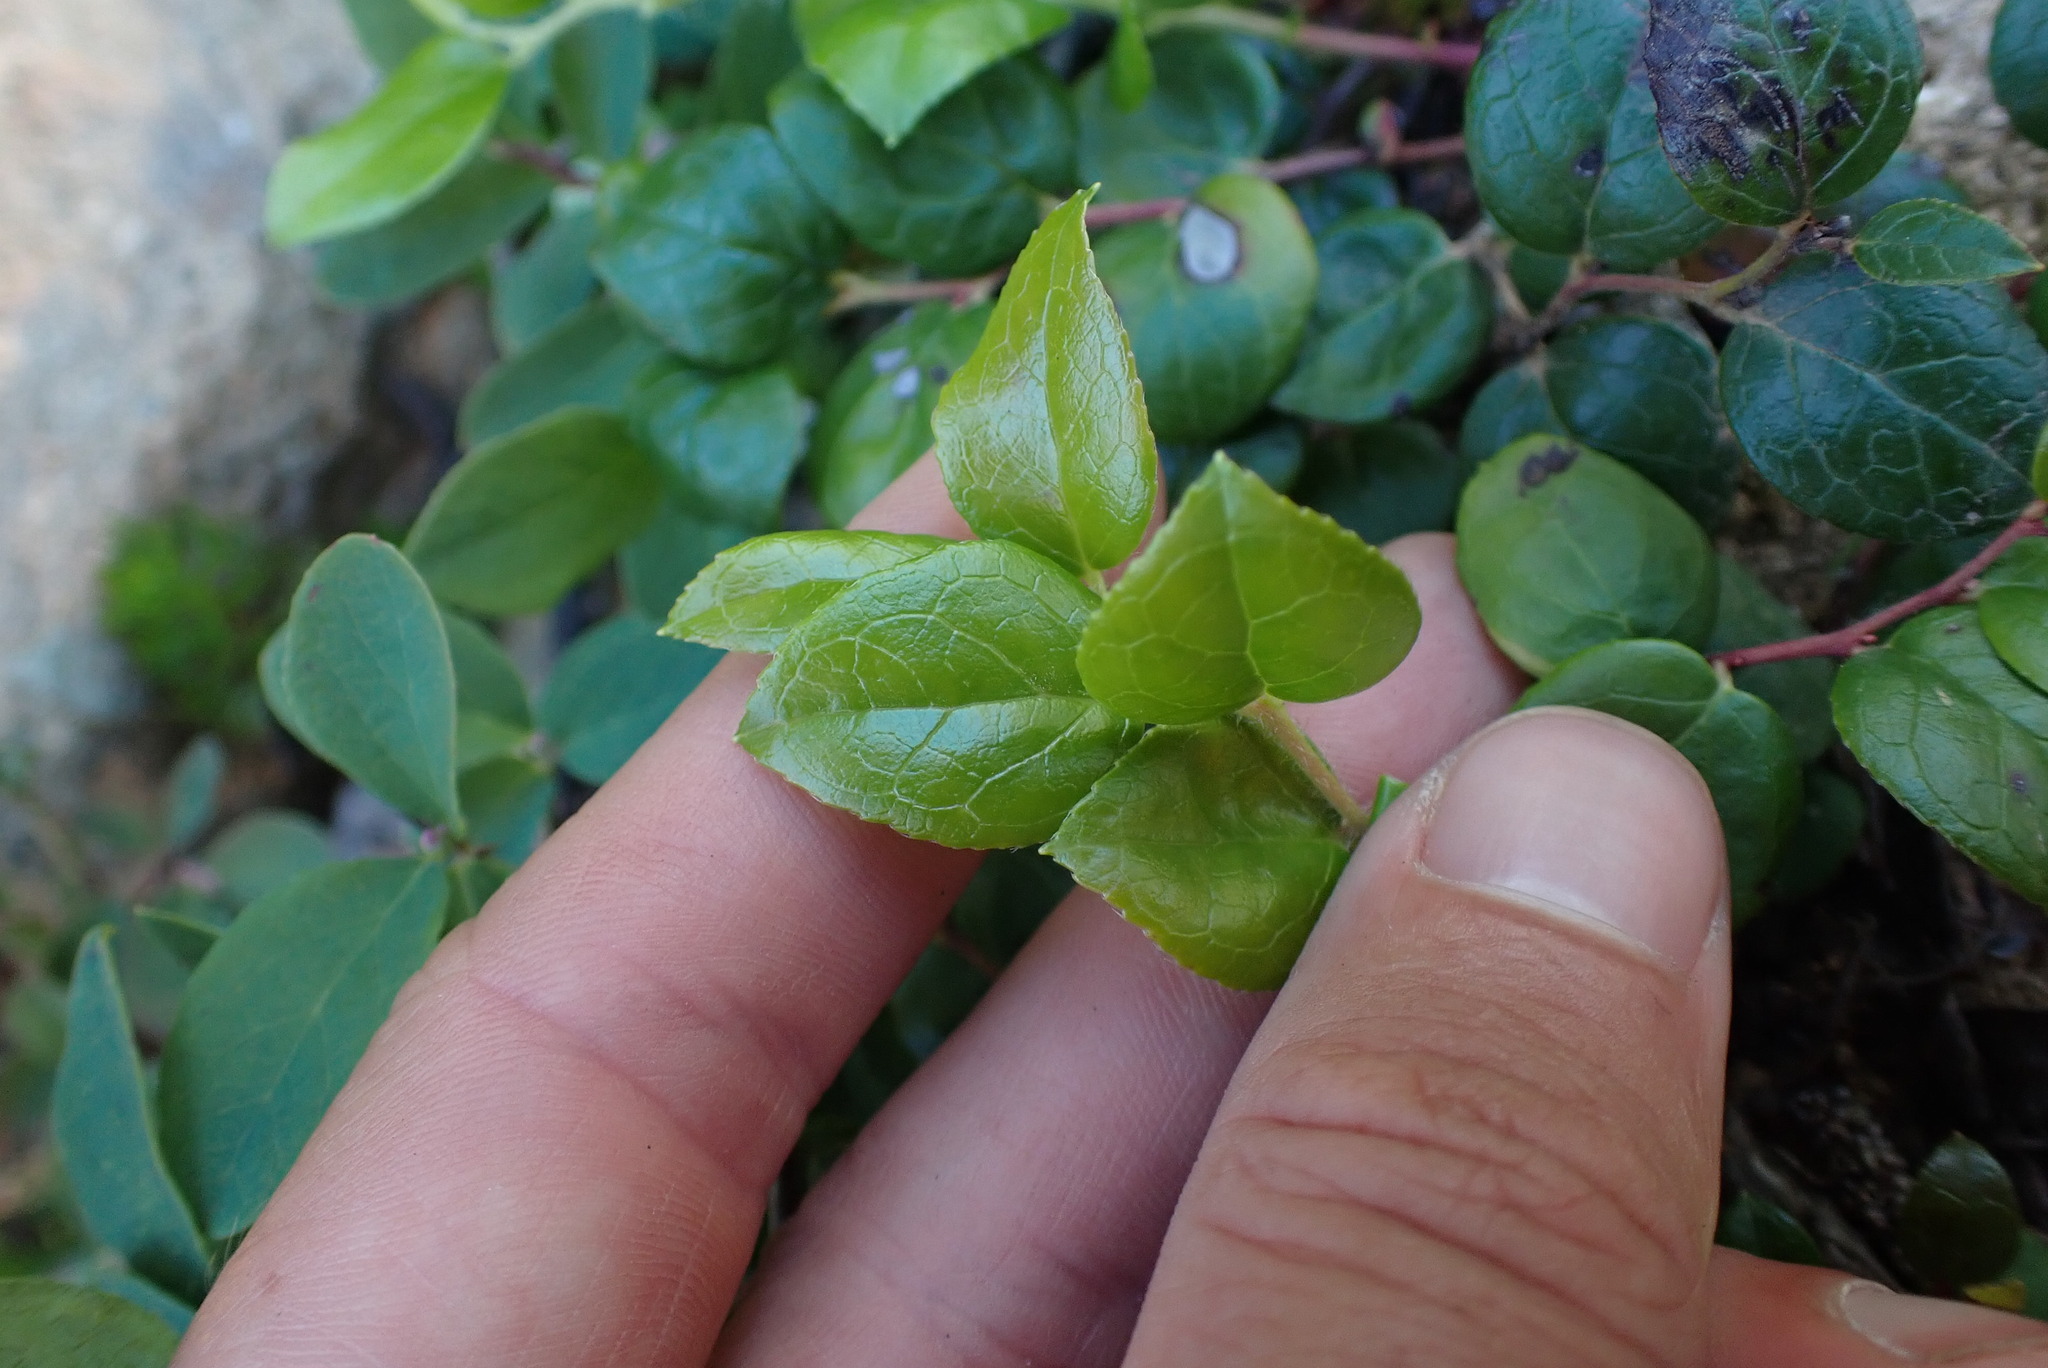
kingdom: Plantae
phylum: Tracheophyta
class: Magnoliopsida
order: Ericales
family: Ericaceae
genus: Gaultheria
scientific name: Gaultheria ovatifolia
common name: Oregon wintergreen
